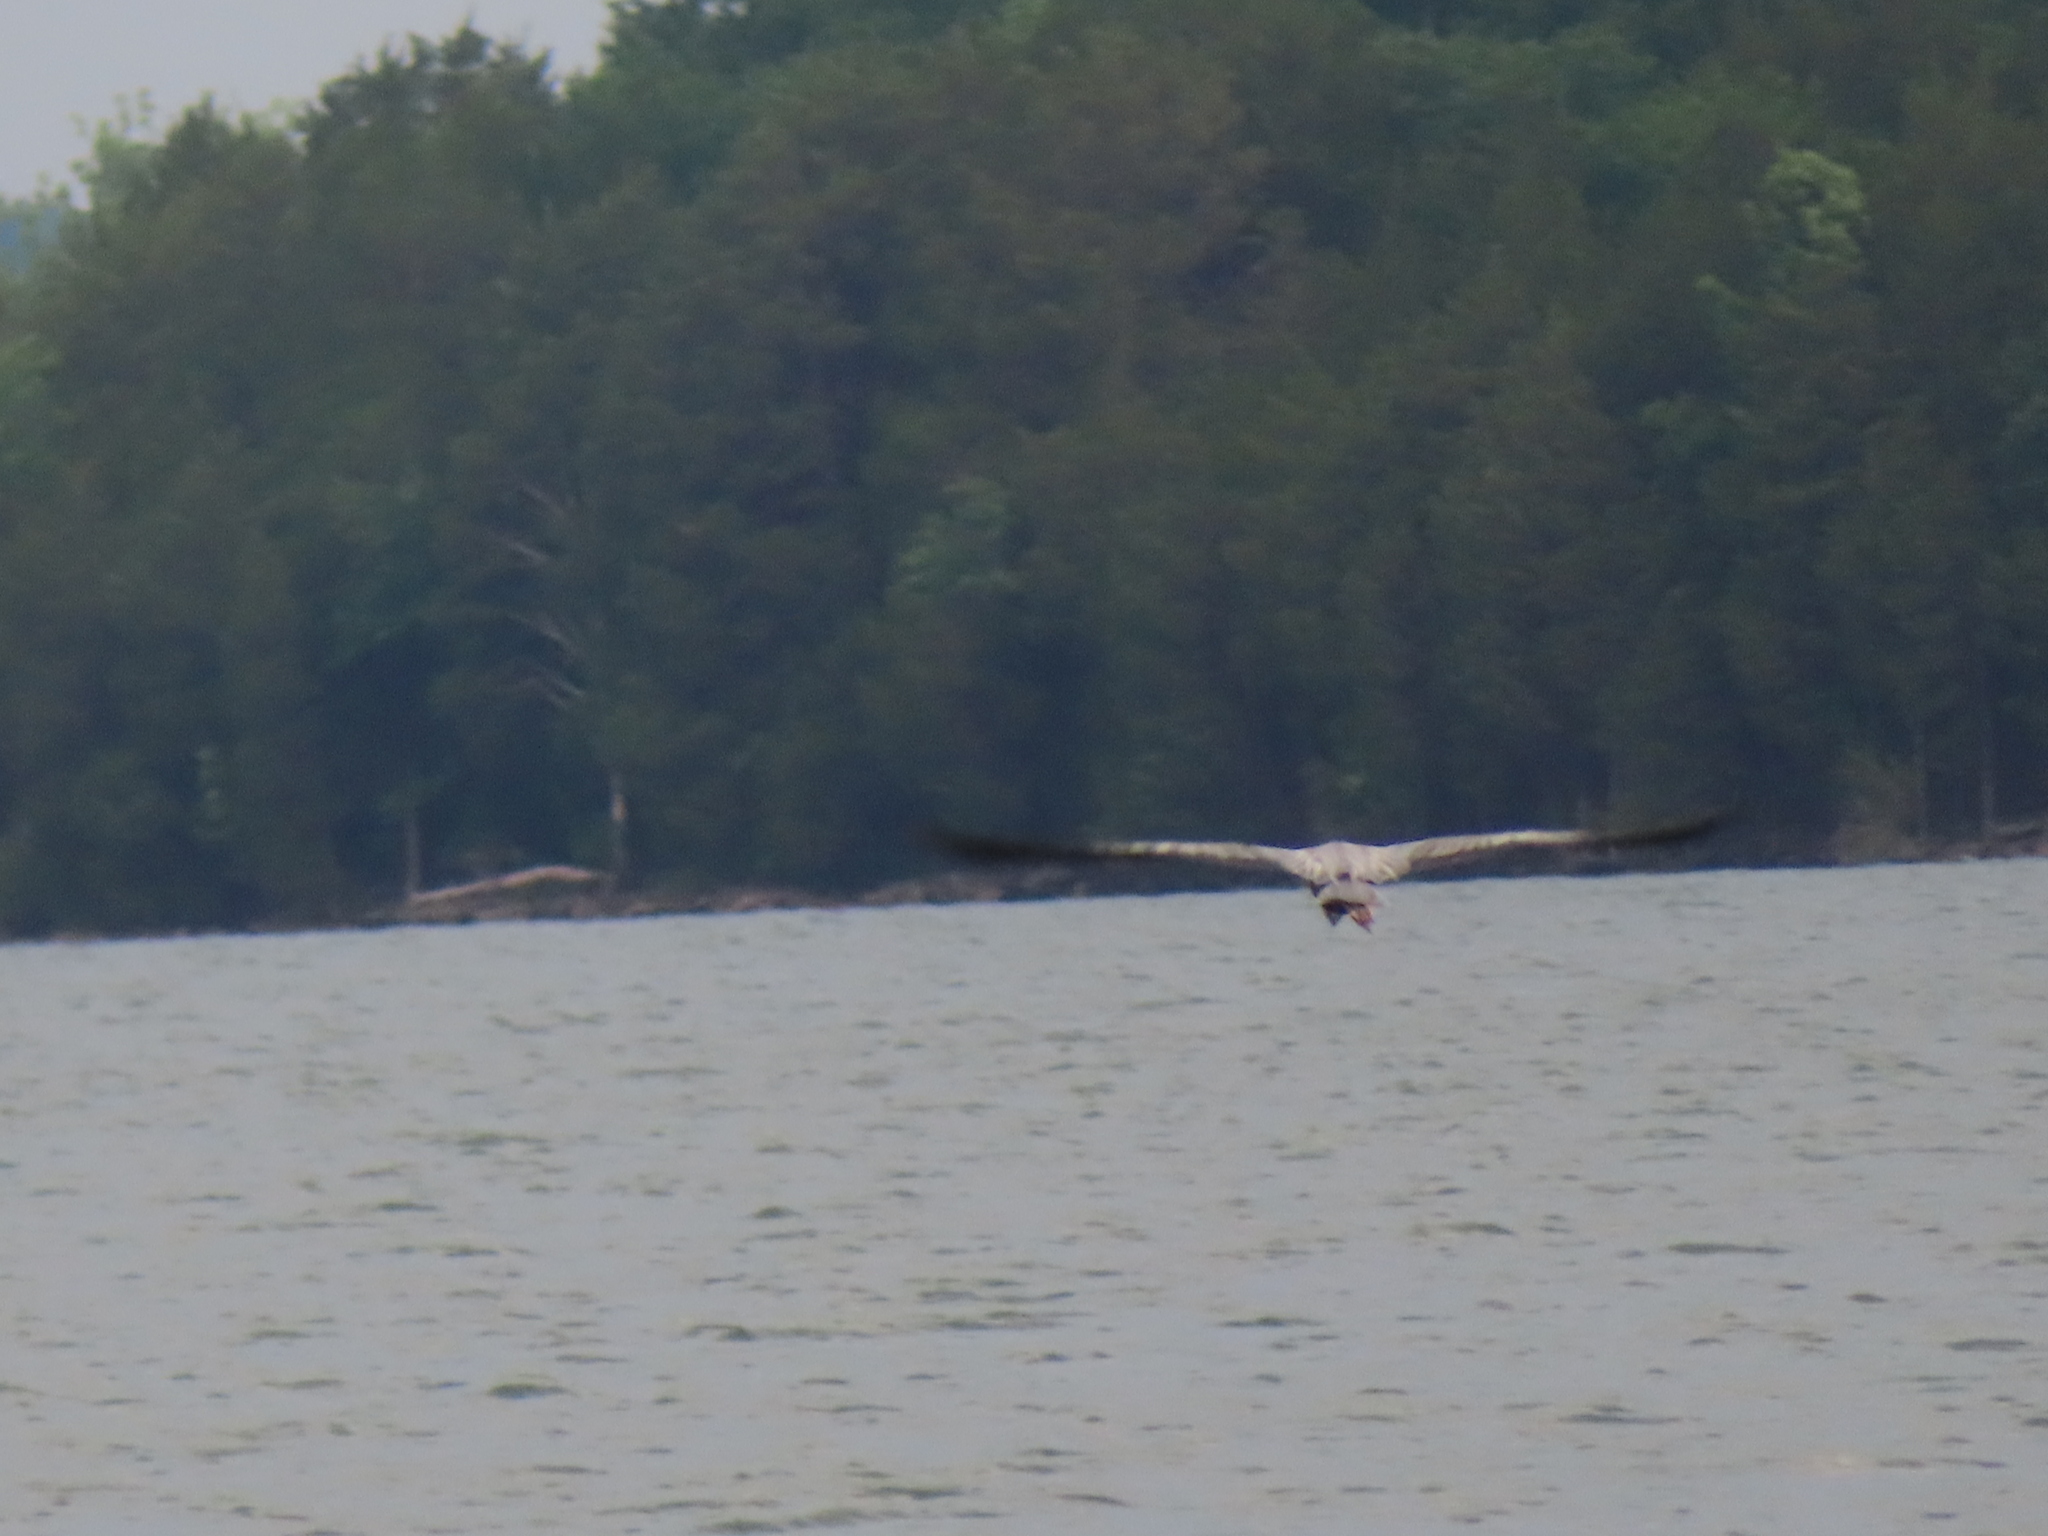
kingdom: Animalia
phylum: Chordata
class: Aves
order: Pelecaniformes
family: Ardeidae
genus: Ardea
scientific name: Ardea herodias
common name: Great blue heron
